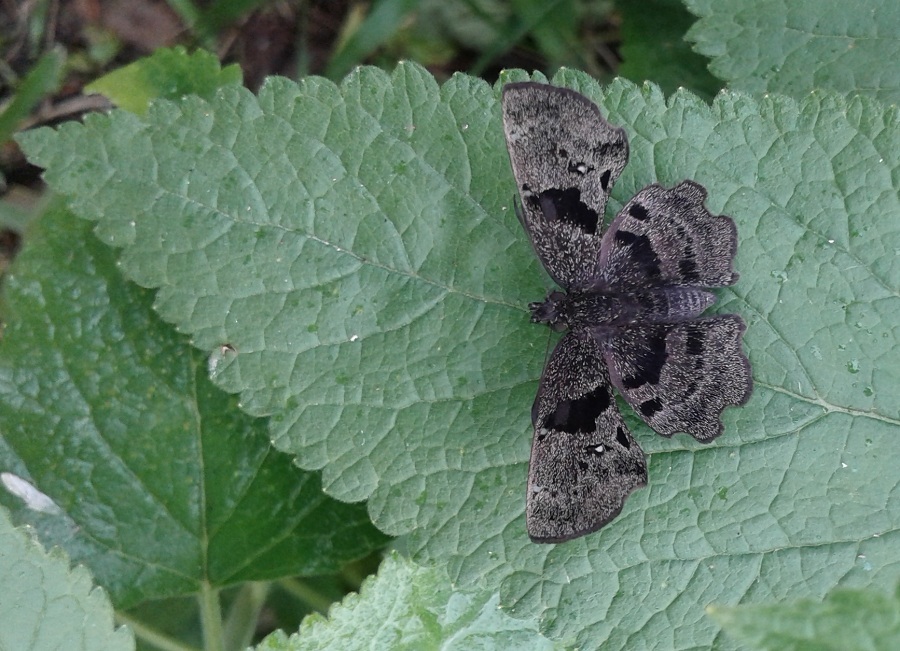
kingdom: Animalia
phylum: Arthropoda
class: Insecta
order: Lepidoptera
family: Hesperiidae
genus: Antigonus
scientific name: Antigonus liborius
